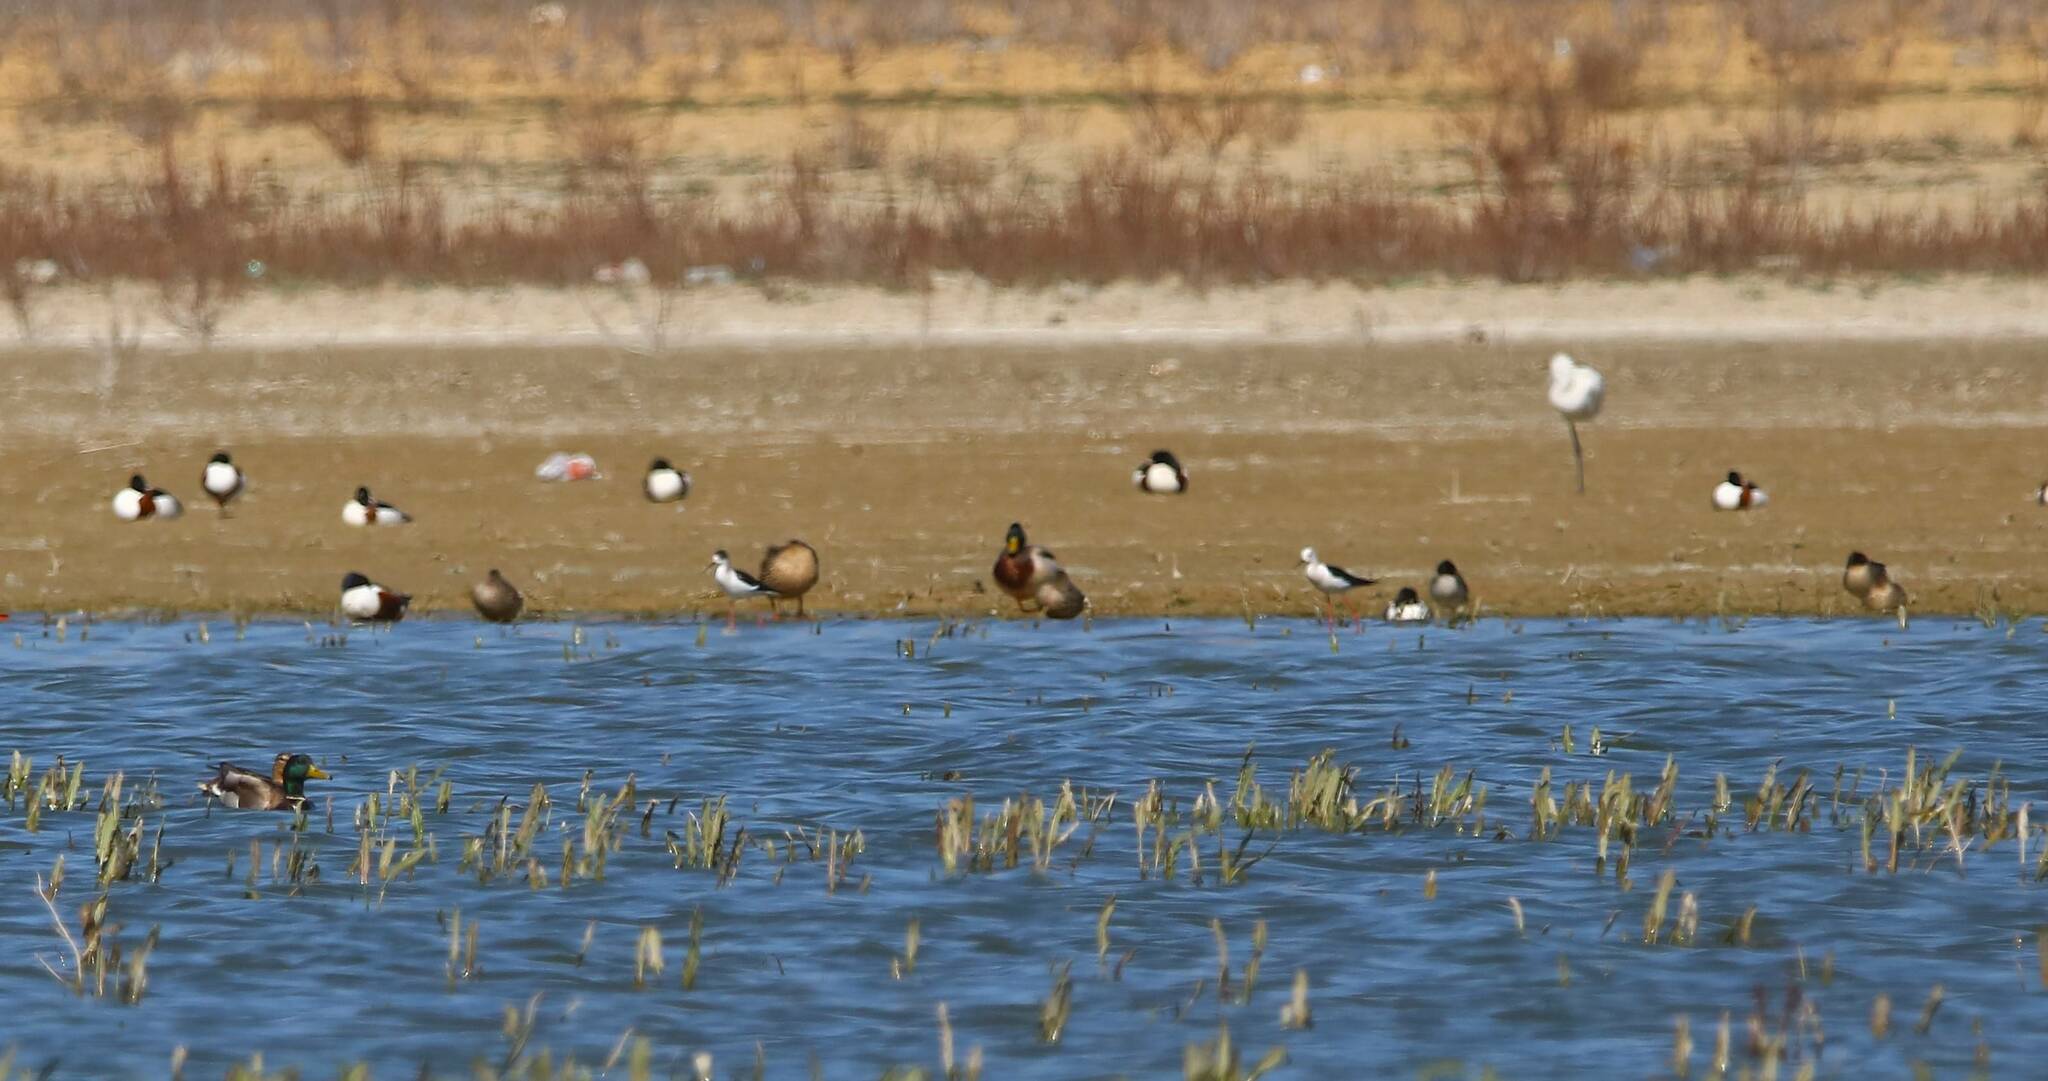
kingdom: Animalia
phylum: Chordata
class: Aves
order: Anseriformes
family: Anatidae
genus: Spatula
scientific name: Spatula clypeata
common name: Northern shoveler
